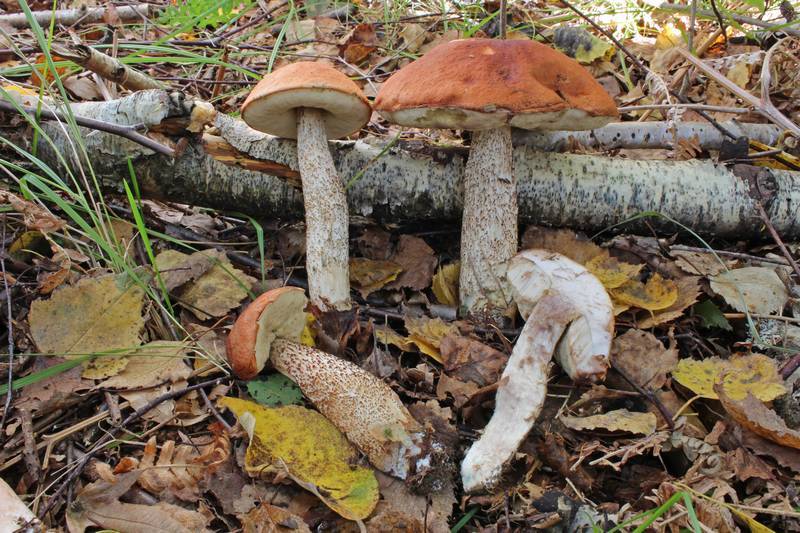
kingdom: Fungi
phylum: Basidiomycota
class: Agaricomycetes
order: Boletales
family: Boletaceae
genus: Leccinum
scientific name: Leccinum aurantiacum
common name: Orange bolete
